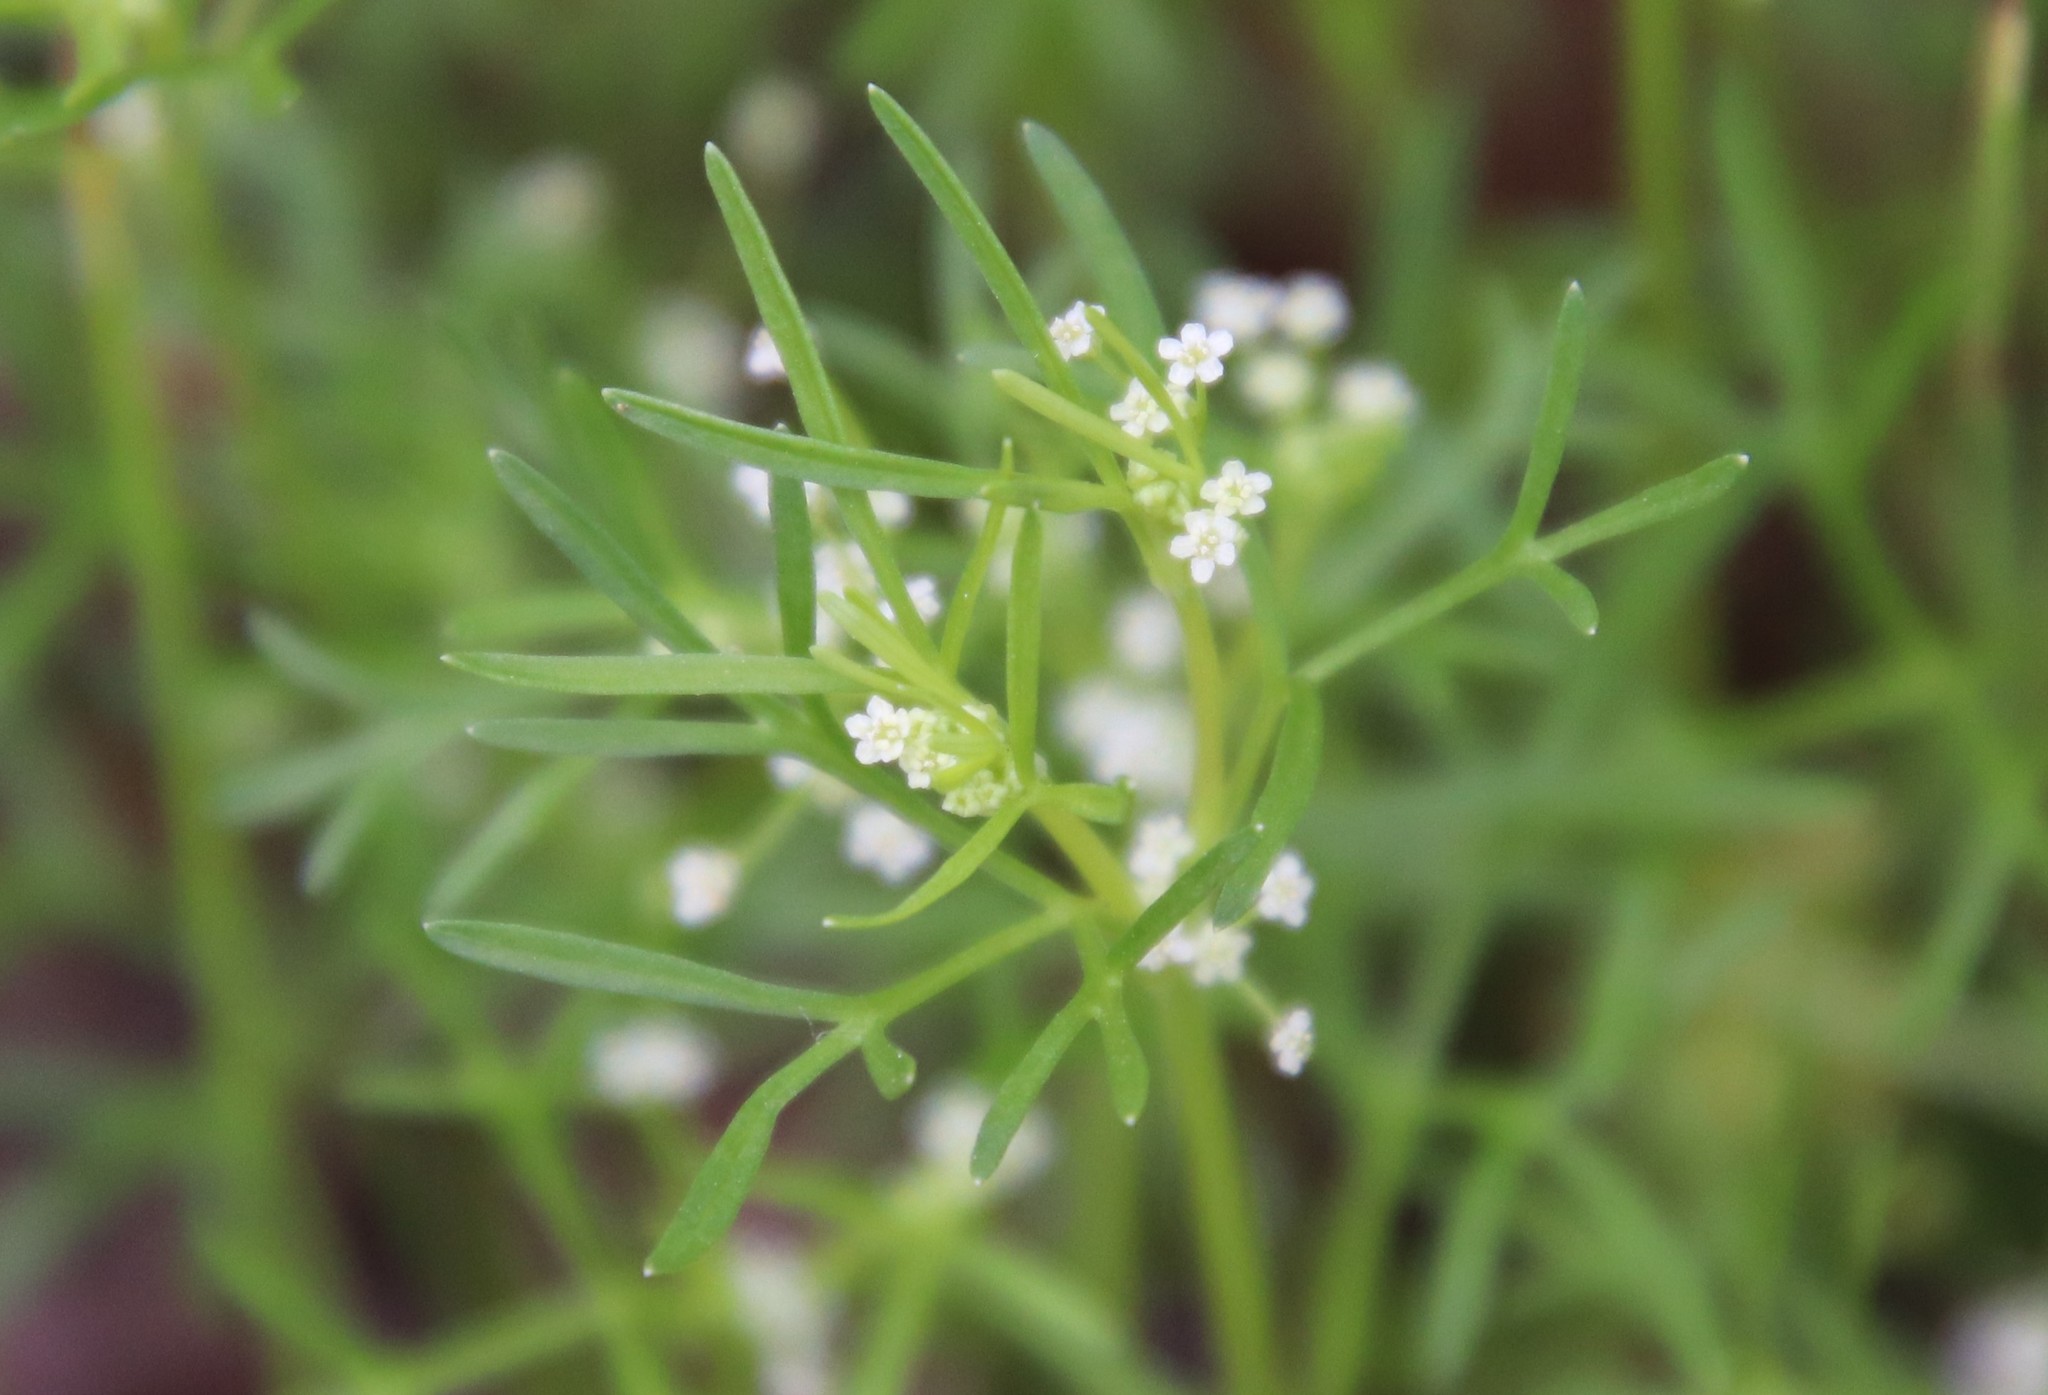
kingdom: Plantae
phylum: Tracheophyta
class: Magnoliopsida
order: Apiales
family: Apiaceae
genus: Apiastrum
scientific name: Apiastrum angustifolium
